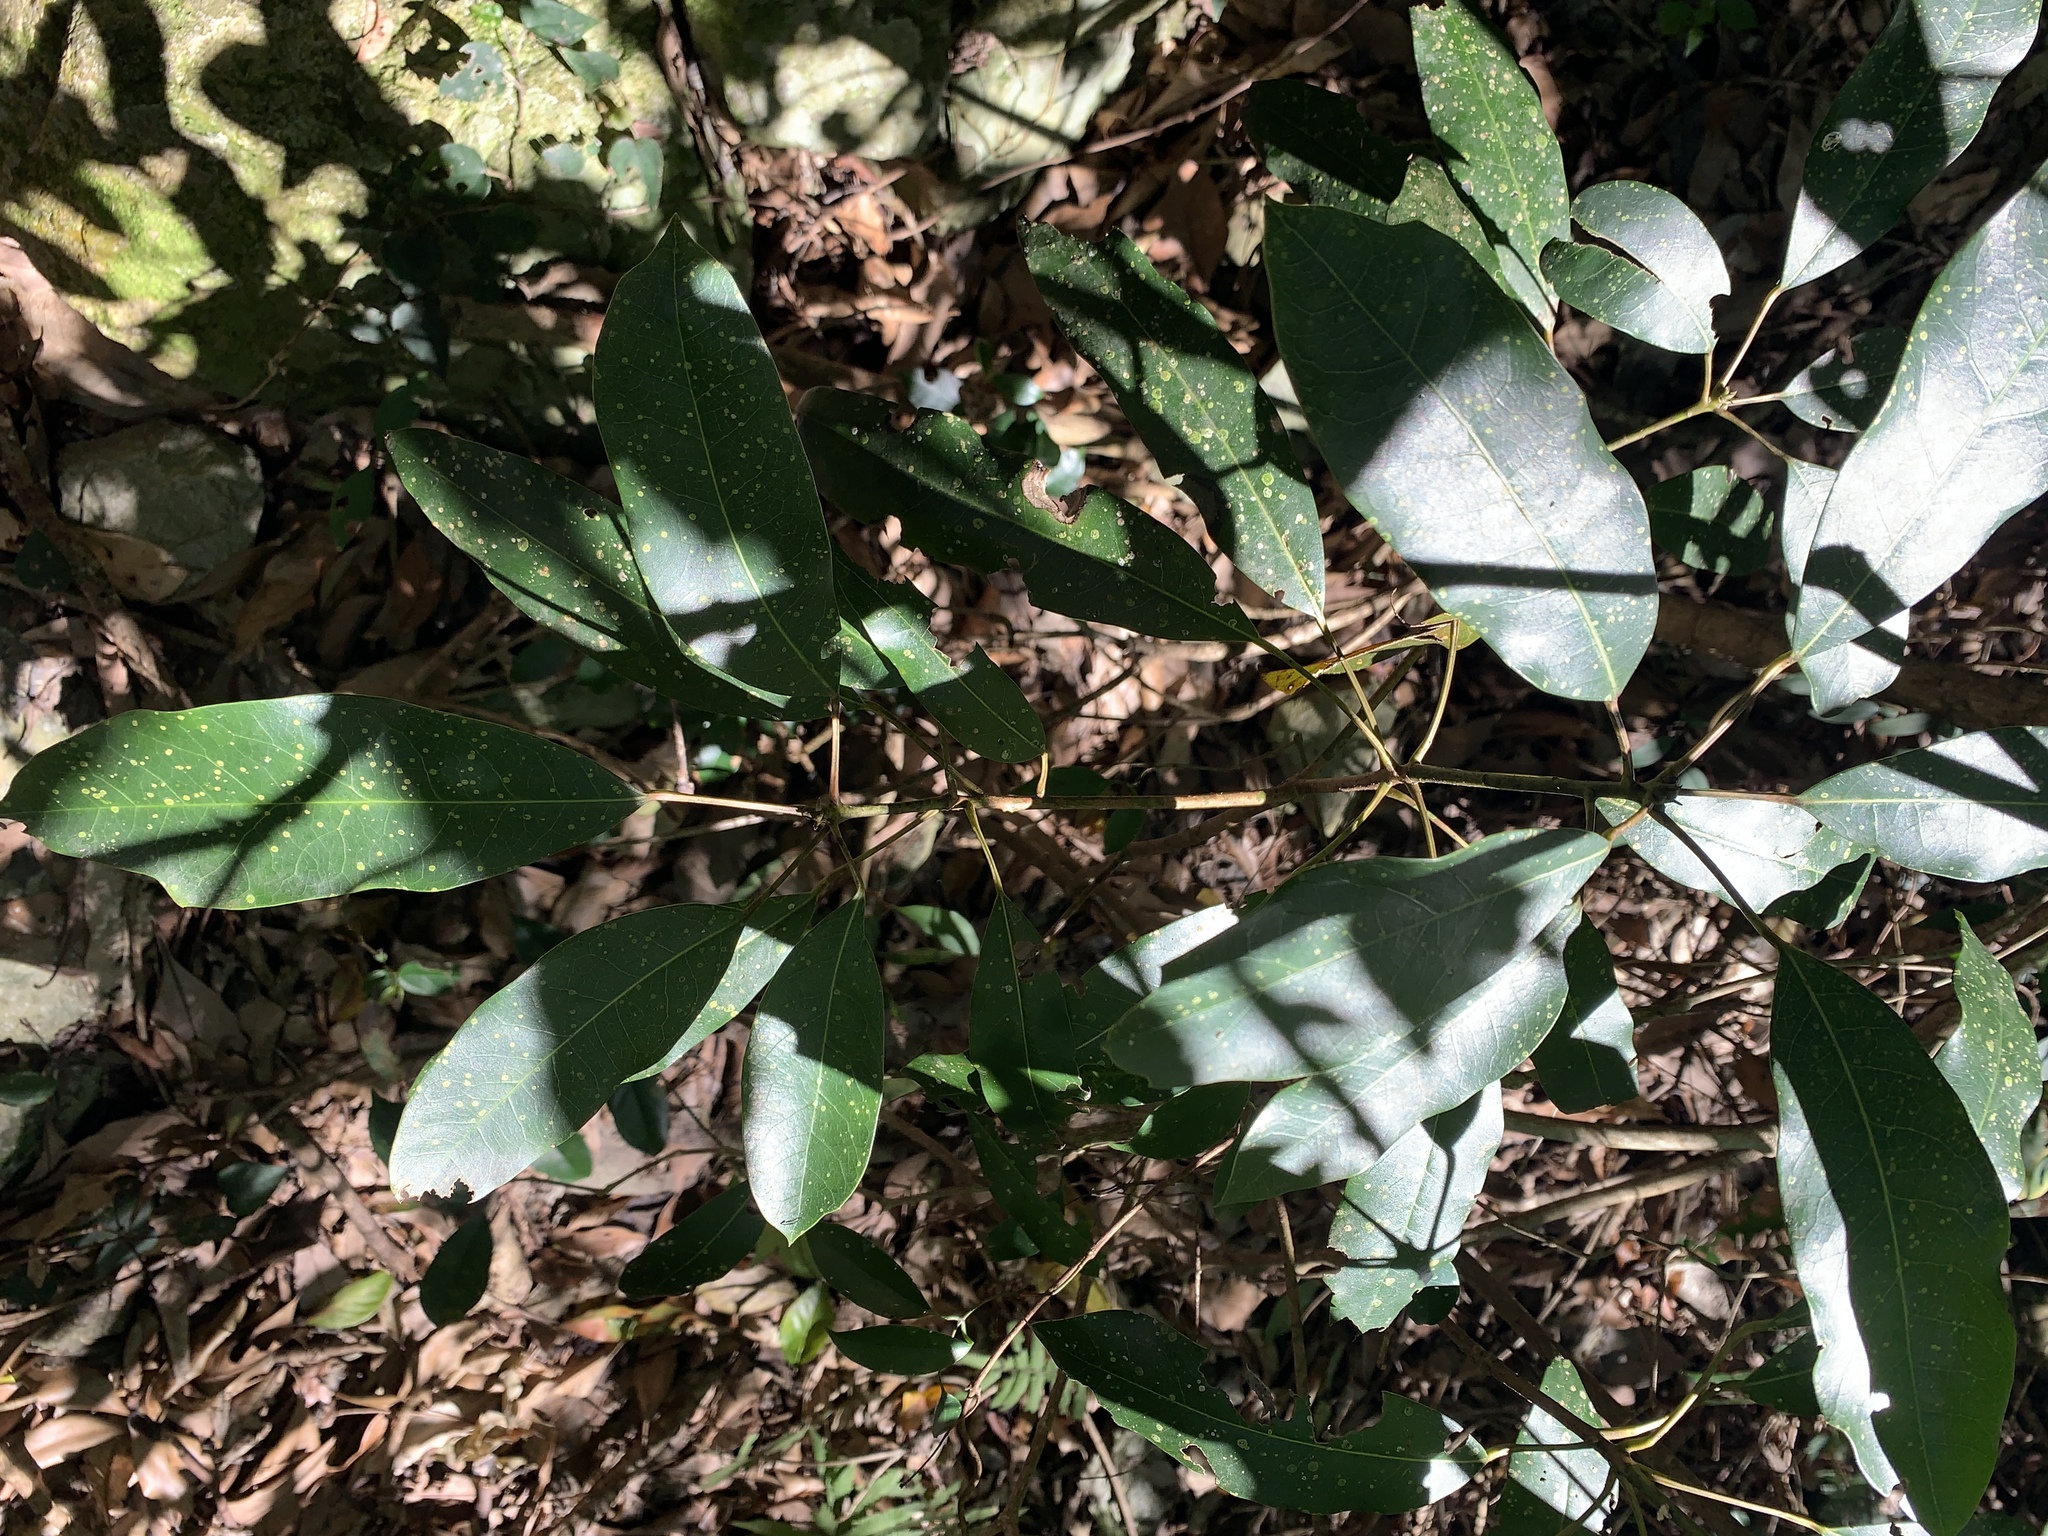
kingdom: Plantae
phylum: Tracheophyta
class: Magnoliopsida
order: Saxifragales
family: Daphniphyllaceae
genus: Daphniphyllum
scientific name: Daphniphyllum pentandrum
